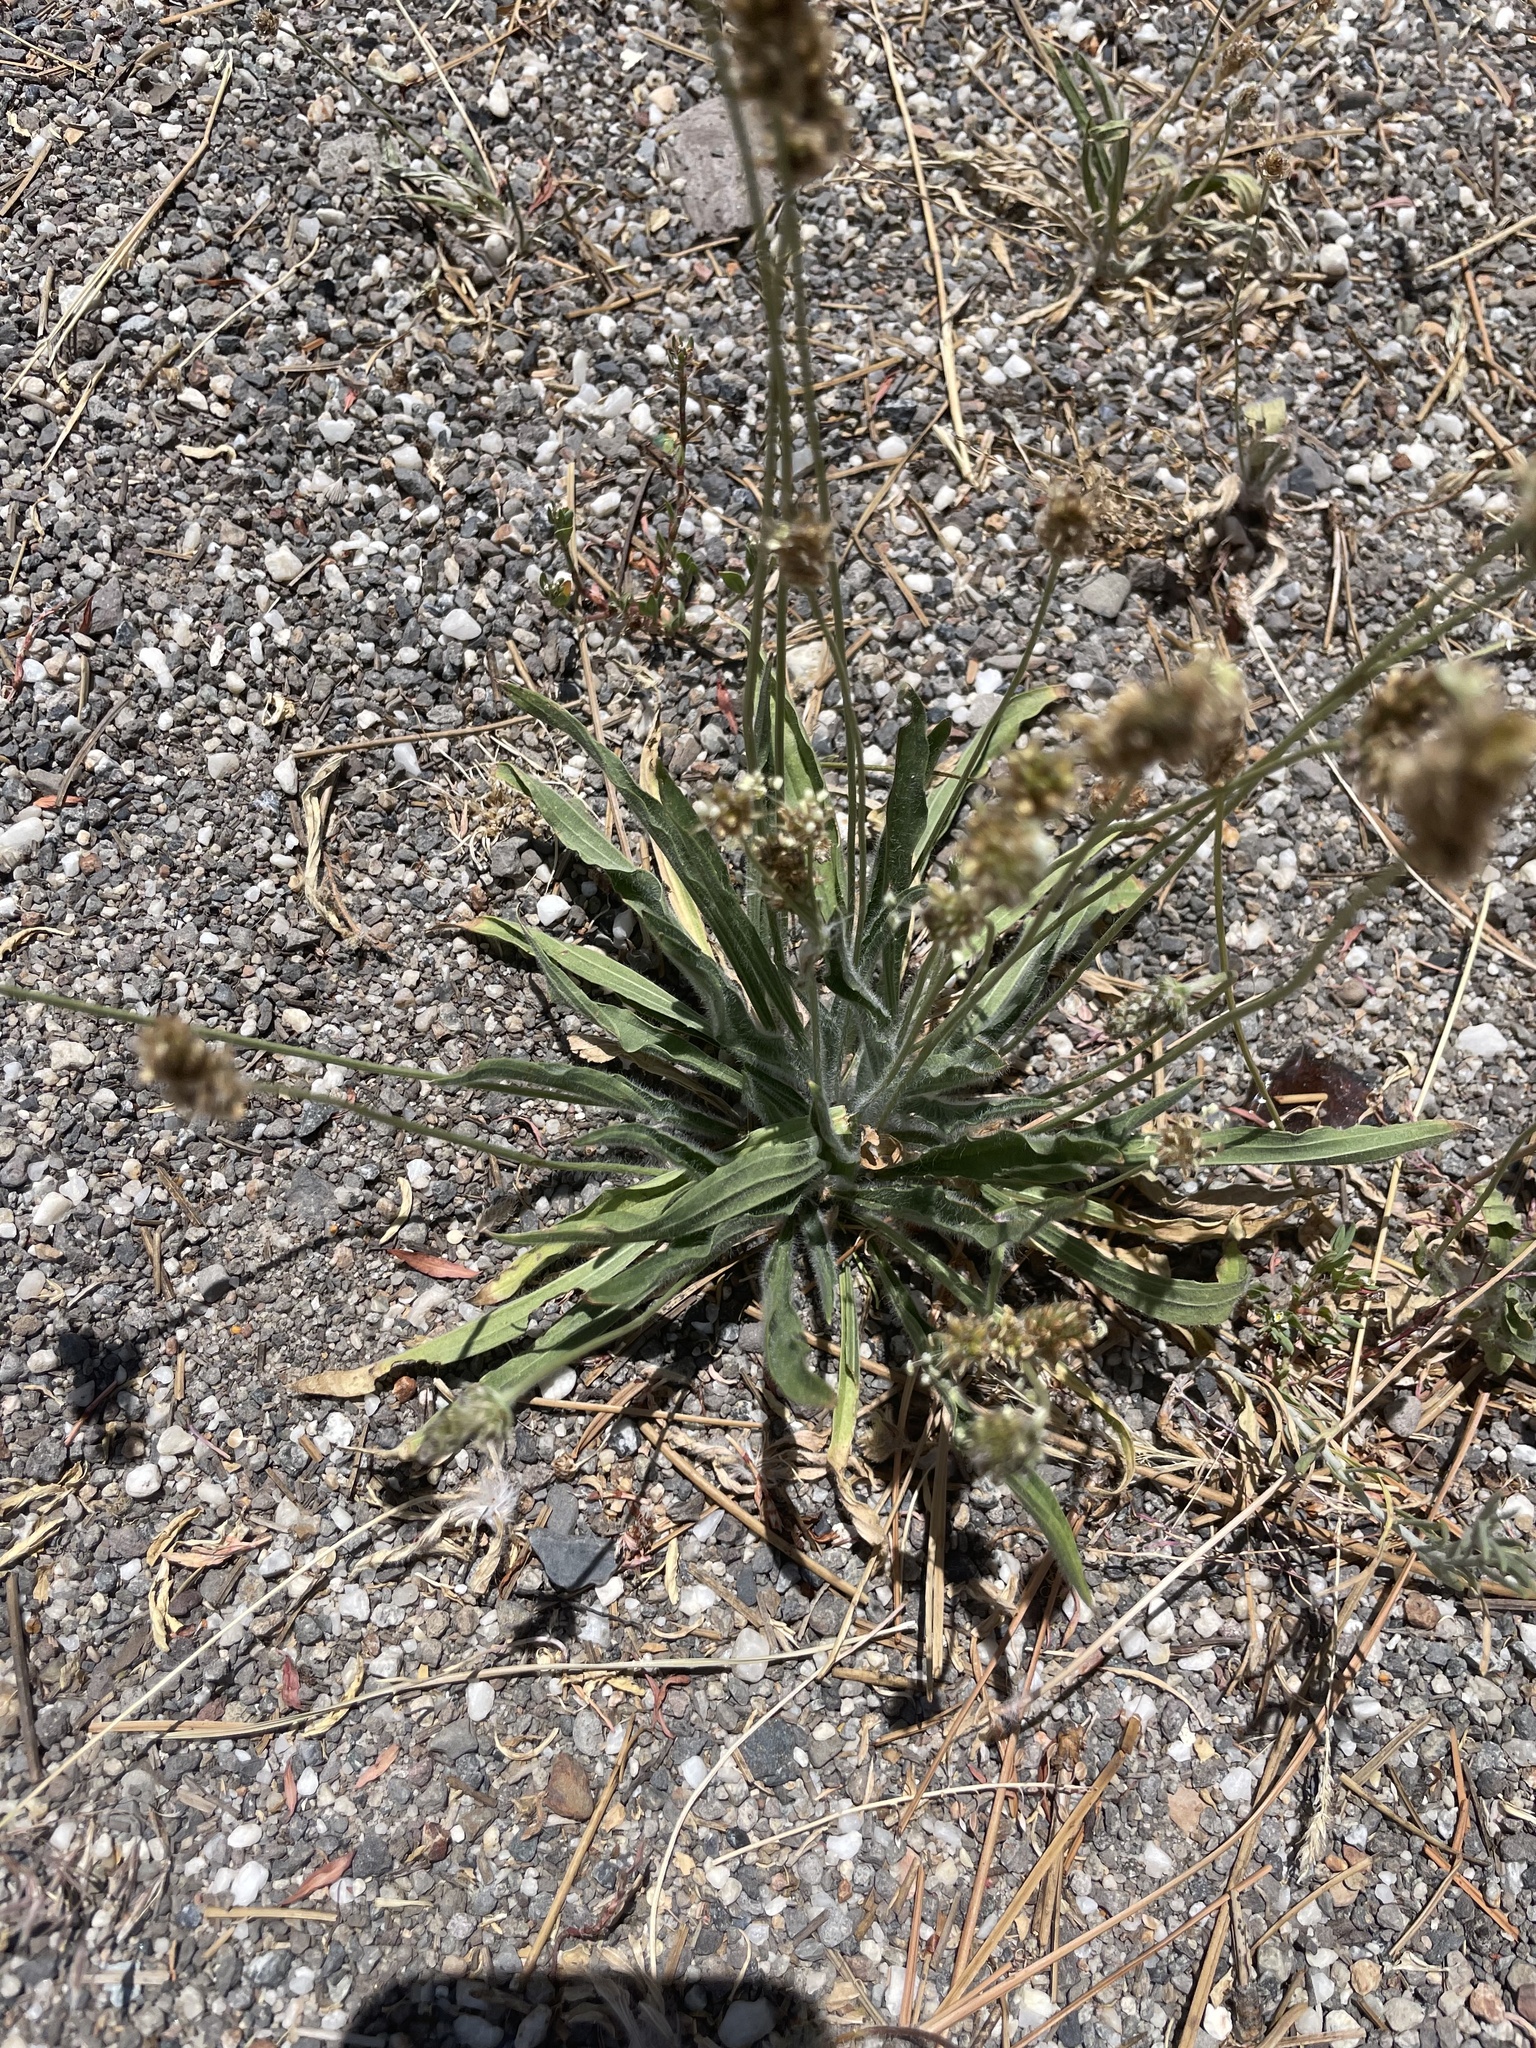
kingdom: Plantae
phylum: Tracheophyta
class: Magnoliopsida
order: Lamiales
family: Plantaginaceae
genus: Plantago
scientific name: Plantago lanceolata
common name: Ribwort plantain
